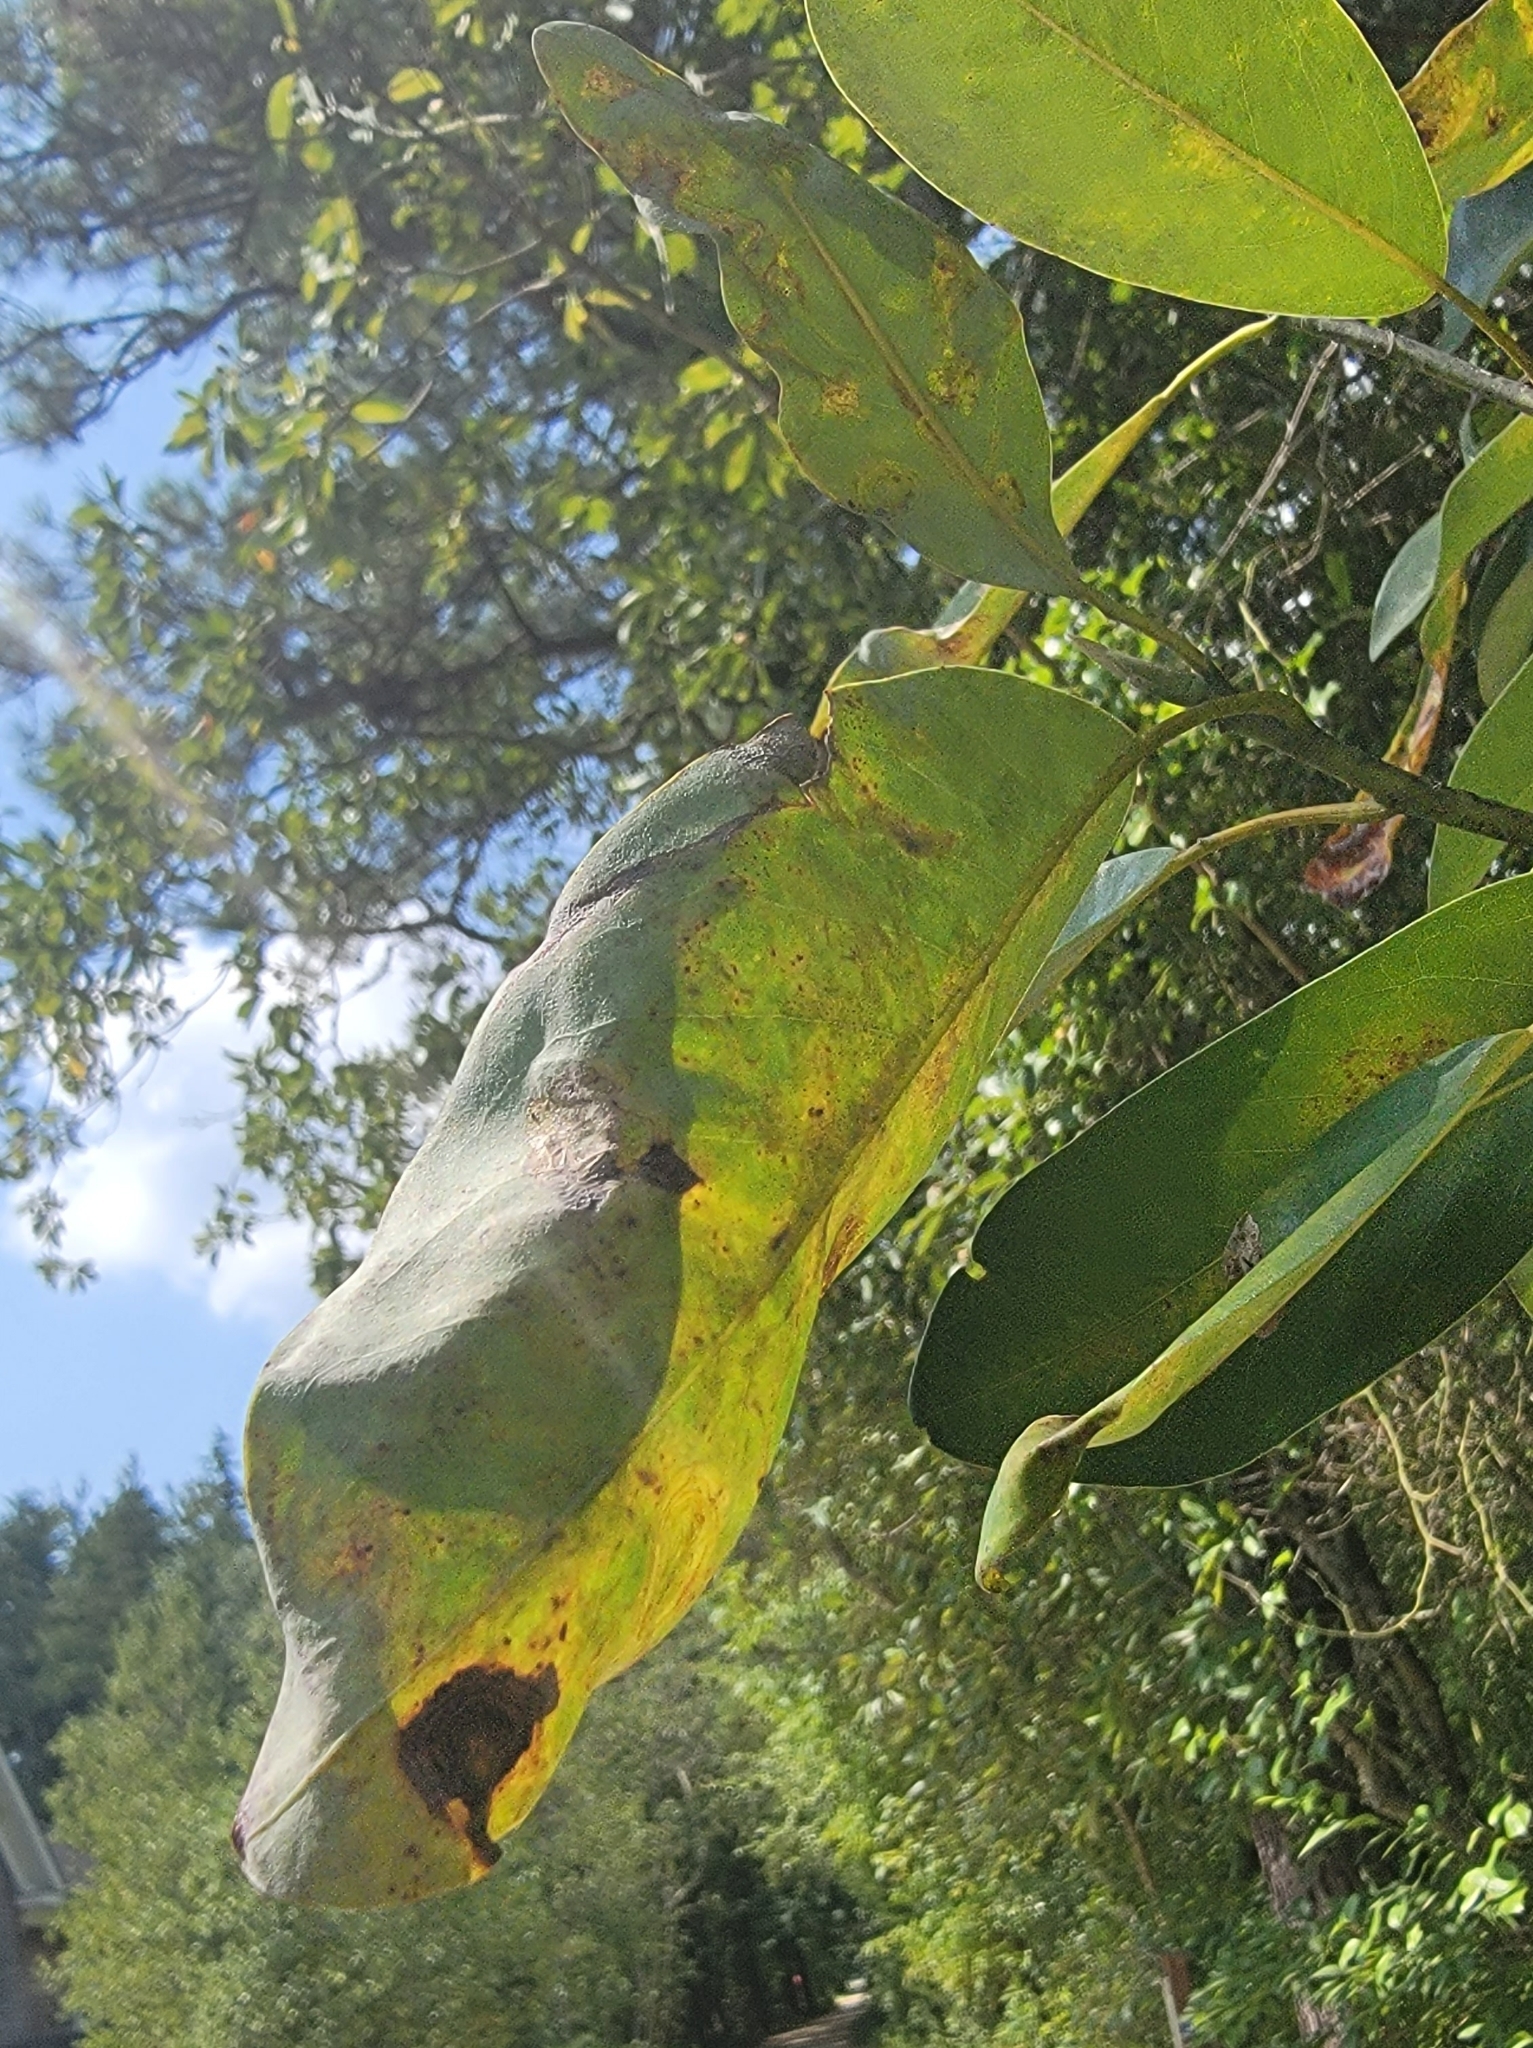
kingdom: Animalia
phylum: Arthropoda
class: Insecta
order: Lepidoptera
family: Gracillariidae
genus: Phyllocnistis
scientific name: Phyllocnistis liriodendronella
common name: Tulip tree leaf miner
